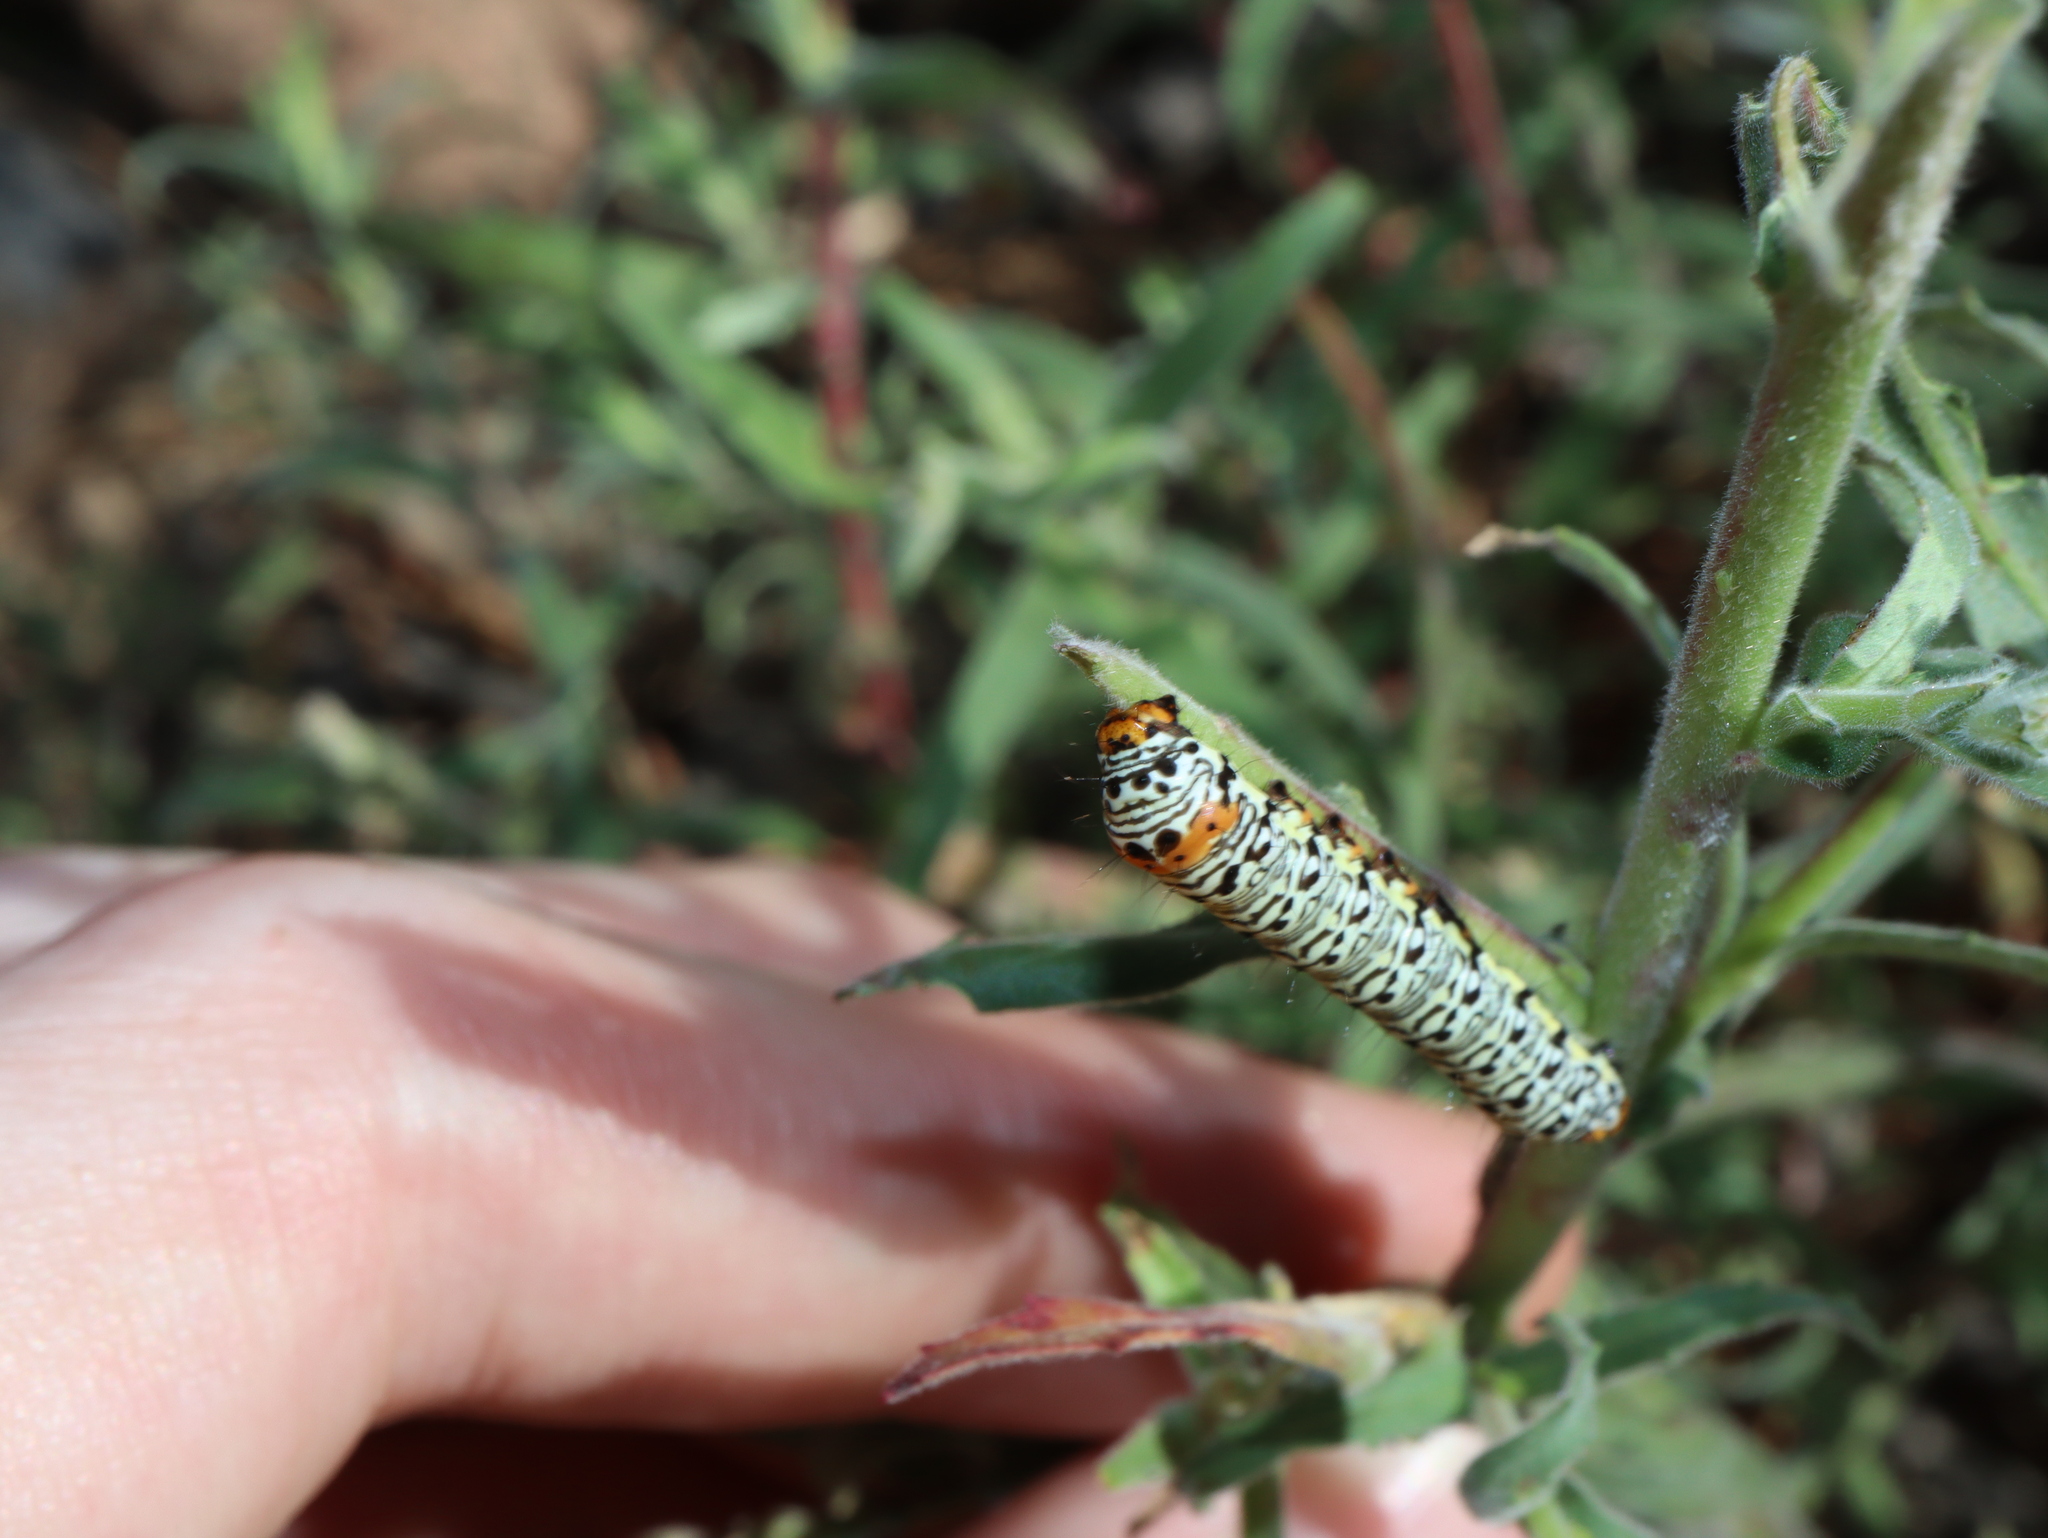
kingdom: Animalia
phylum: Arthropoda
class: Insecta
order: Lepidoptera
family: Noctuidae
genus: Phalaenoides
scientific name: Phalaenoides tristifica
